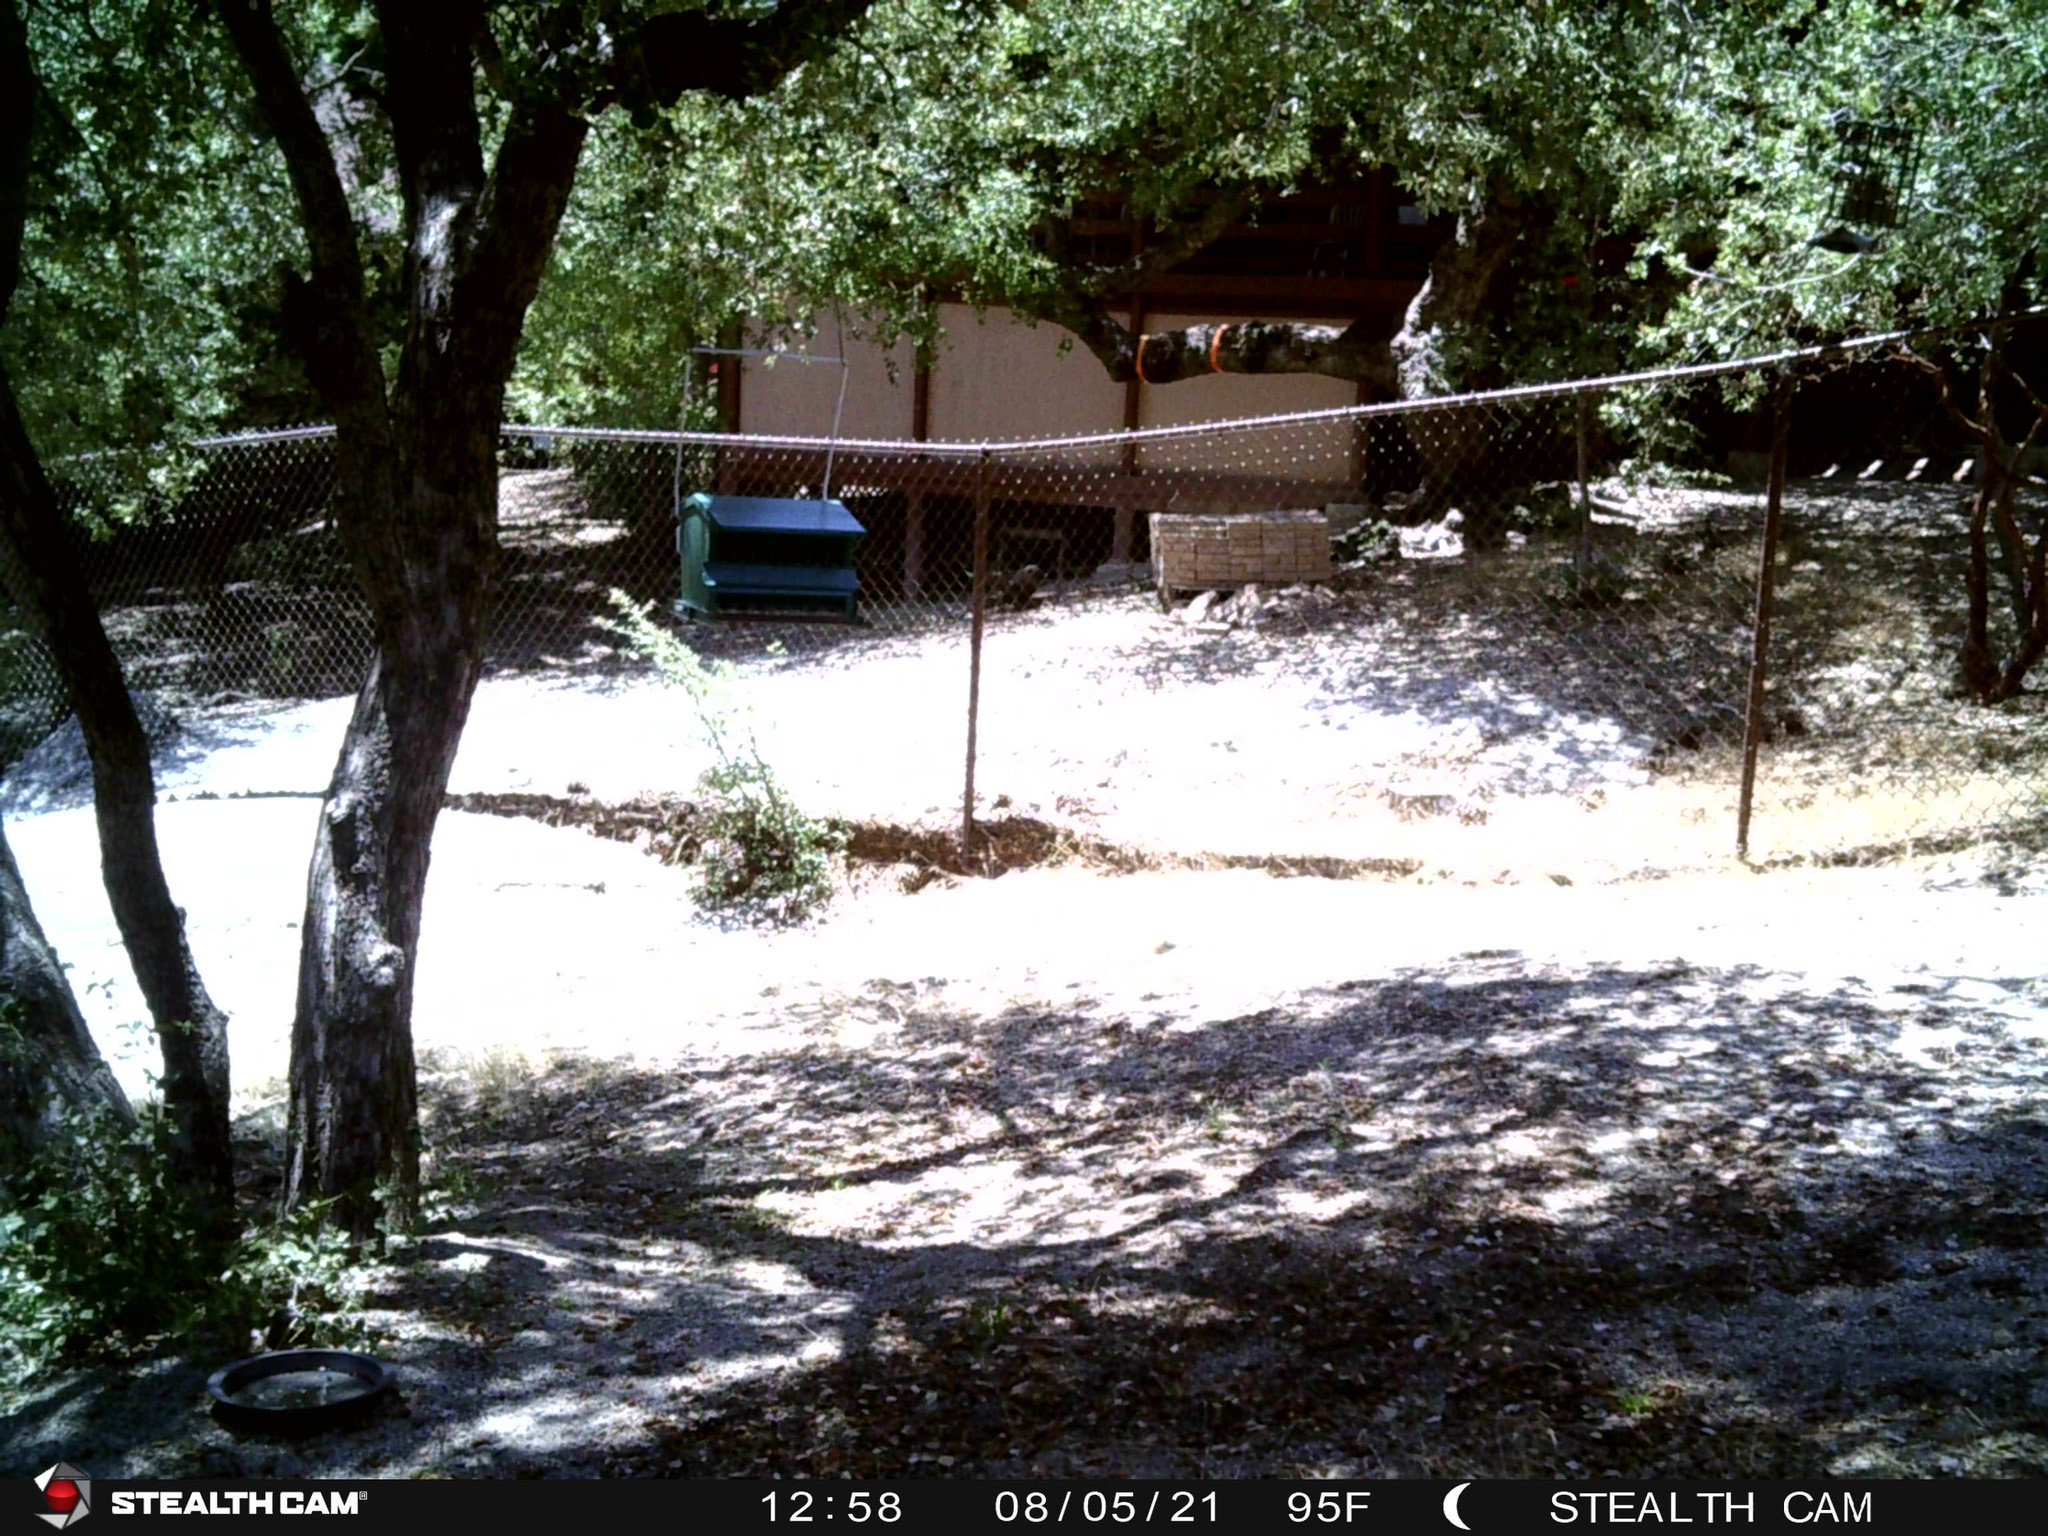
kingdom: Animalia
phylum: Chordata
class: Aves
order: Passeriformes
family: Sittidae
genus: Sitta
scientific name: Sitta carolinensis
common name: White-breasted nuthatch
